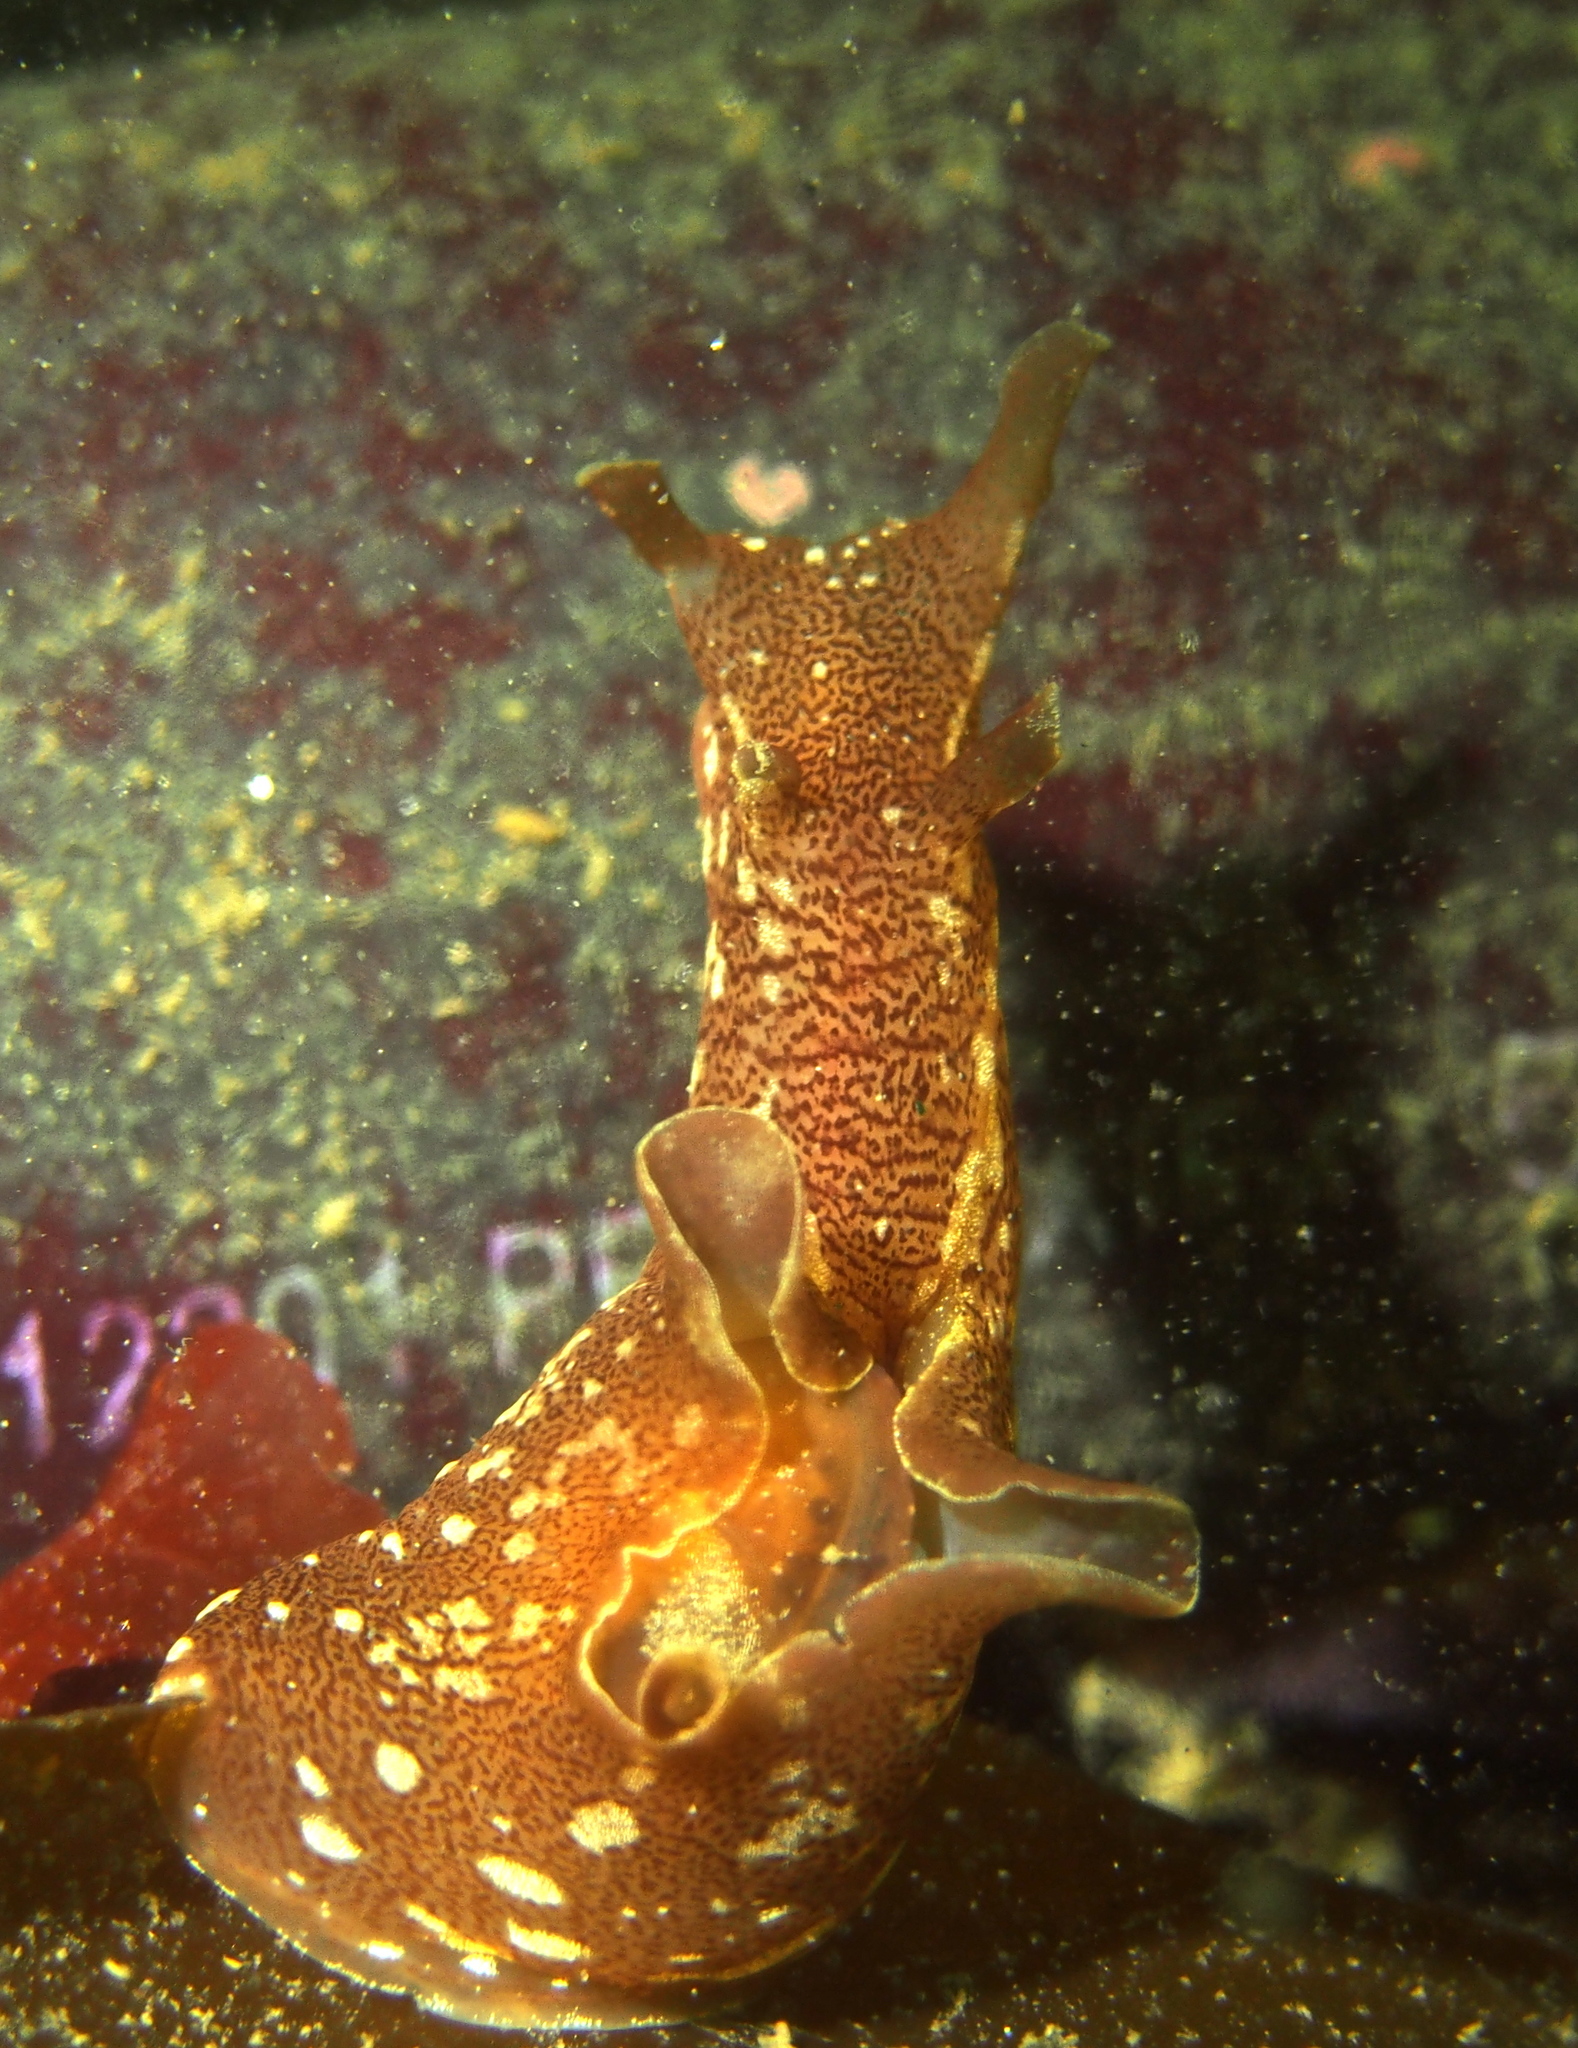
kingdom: Animalia
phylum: Mollusca
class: Gastropoda
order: Aplysiida
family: Aplysiidae
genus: Aplysia
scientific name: Aplysia punctata
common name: Common sea hare
